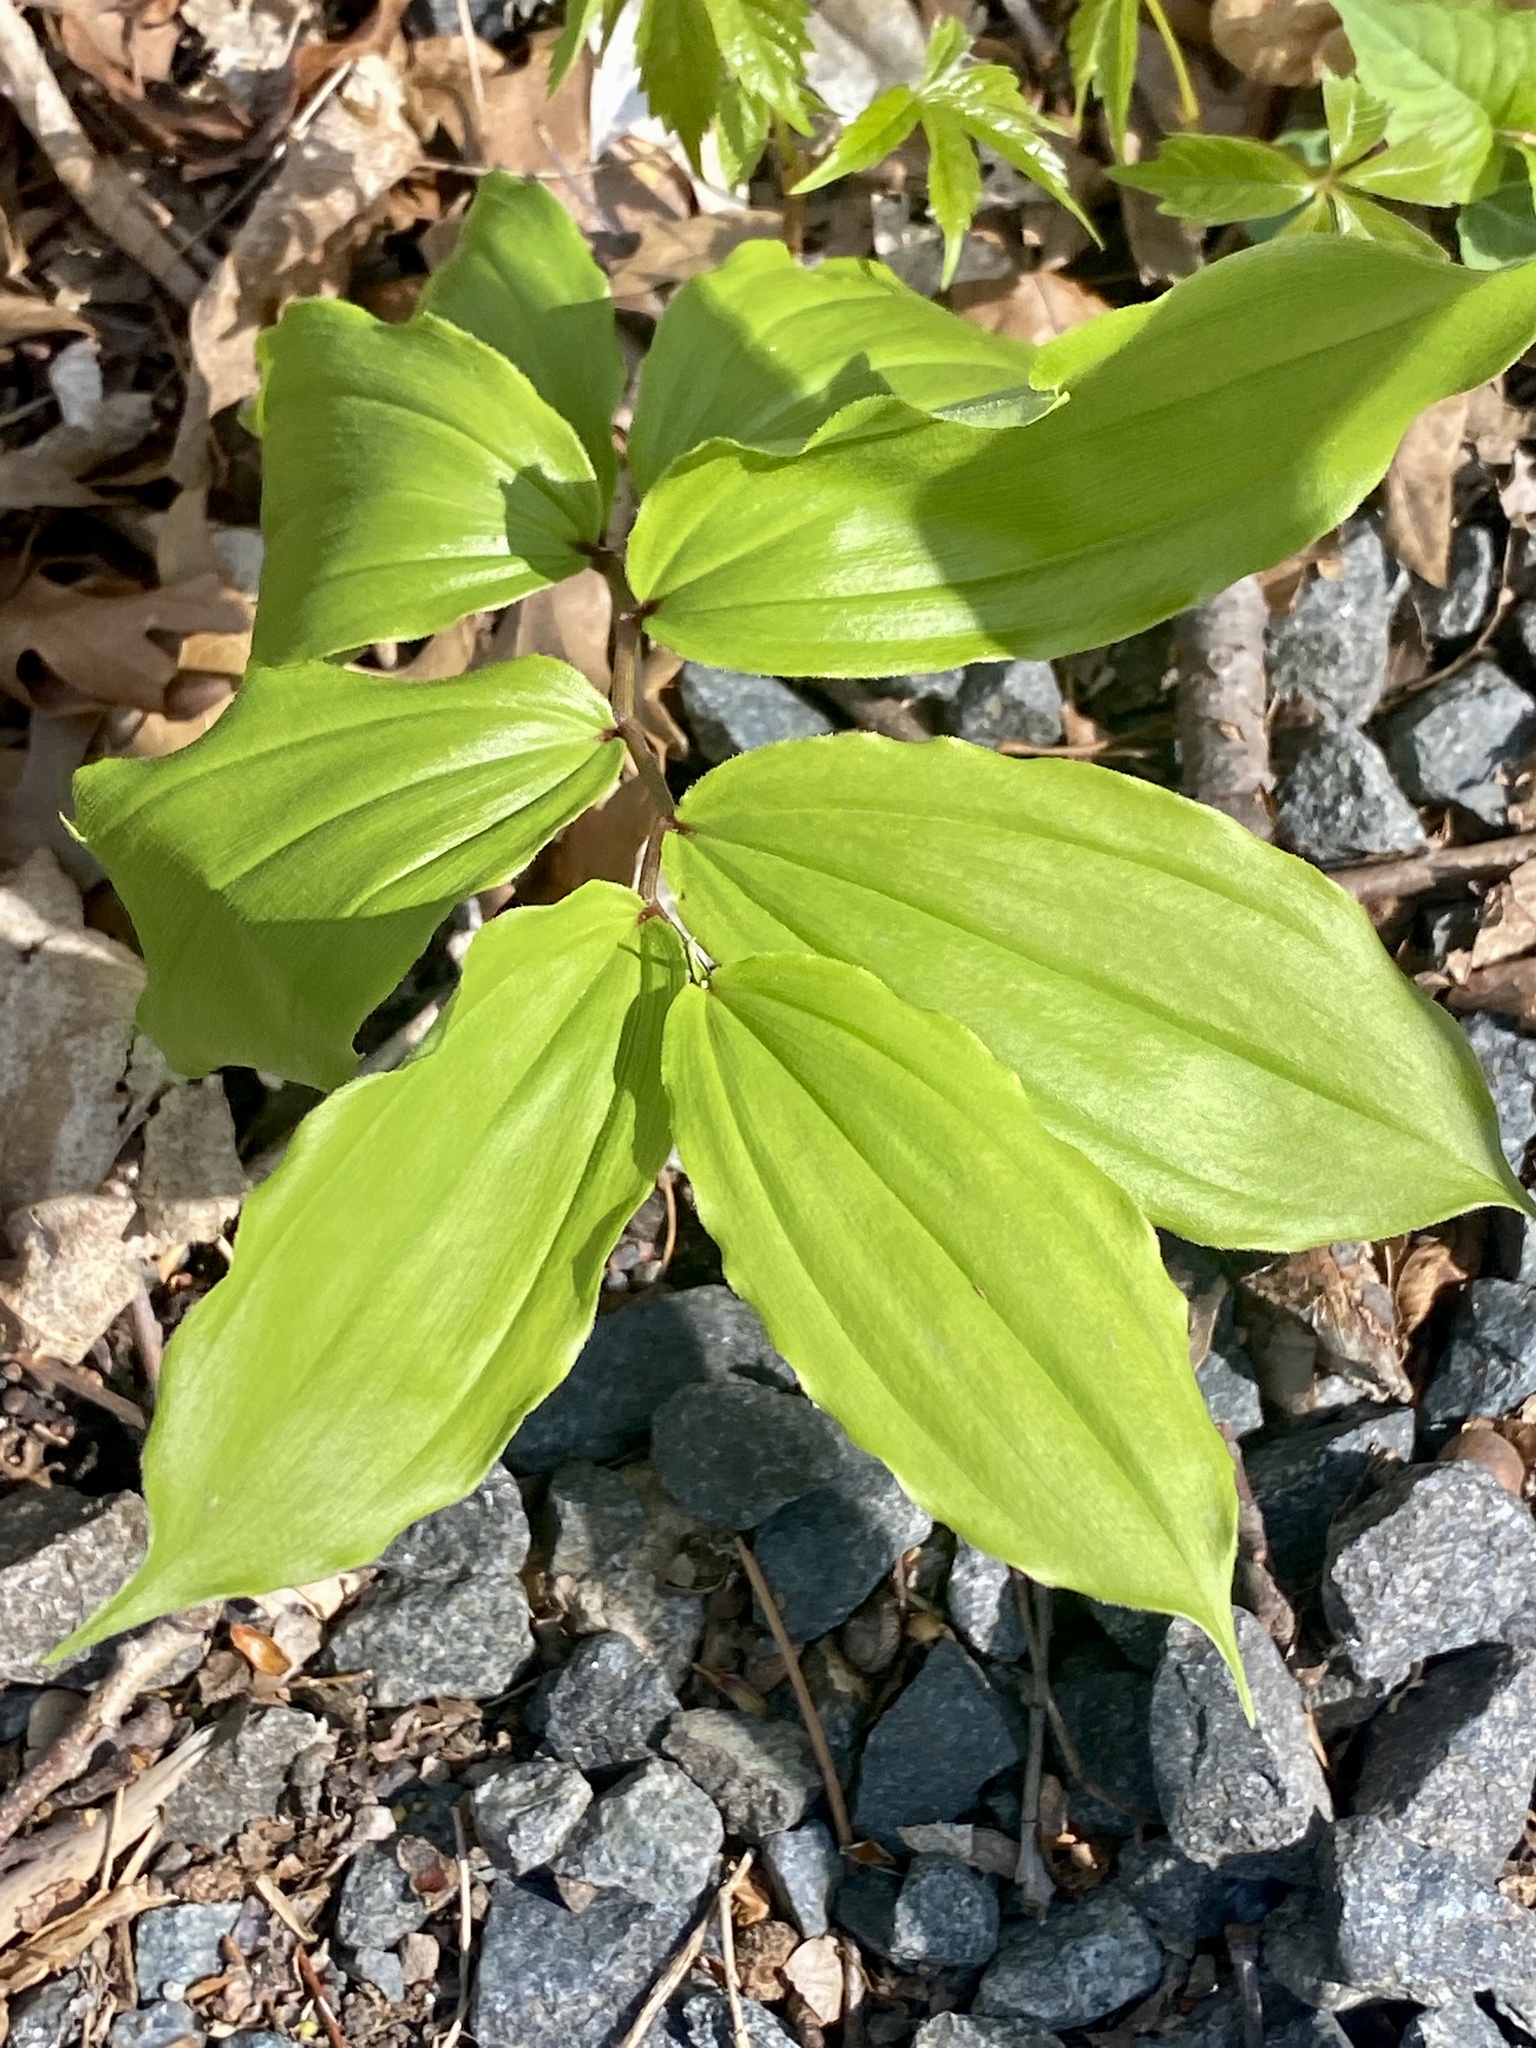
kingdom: Plantae
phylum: Tracheophyta
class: Liliopsida
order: Asparagales
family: Asparagaceae
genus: Maianthemum
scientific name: Maianthemum racemosum
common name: False spikenard
